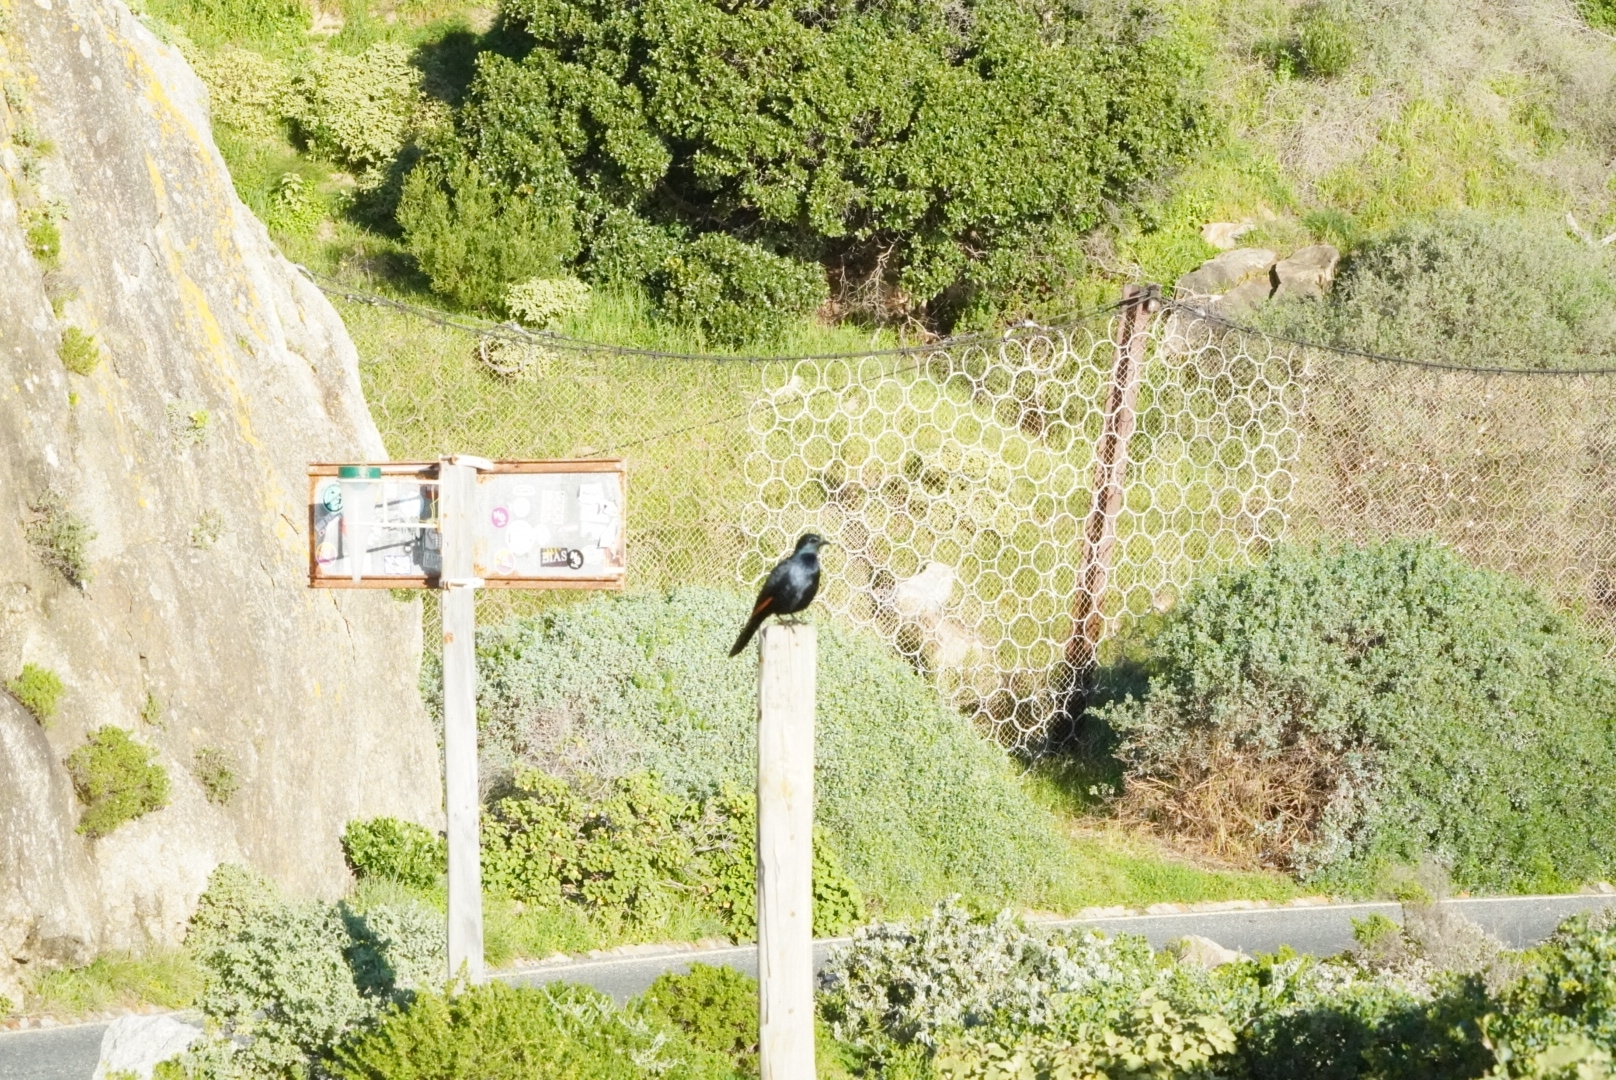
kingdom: Animalia
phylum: Chordata
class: Aves
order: Passeriformes
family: Sturnidae
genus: Onychognathus
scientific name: Onychognathus morio
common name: Red-winged starling
